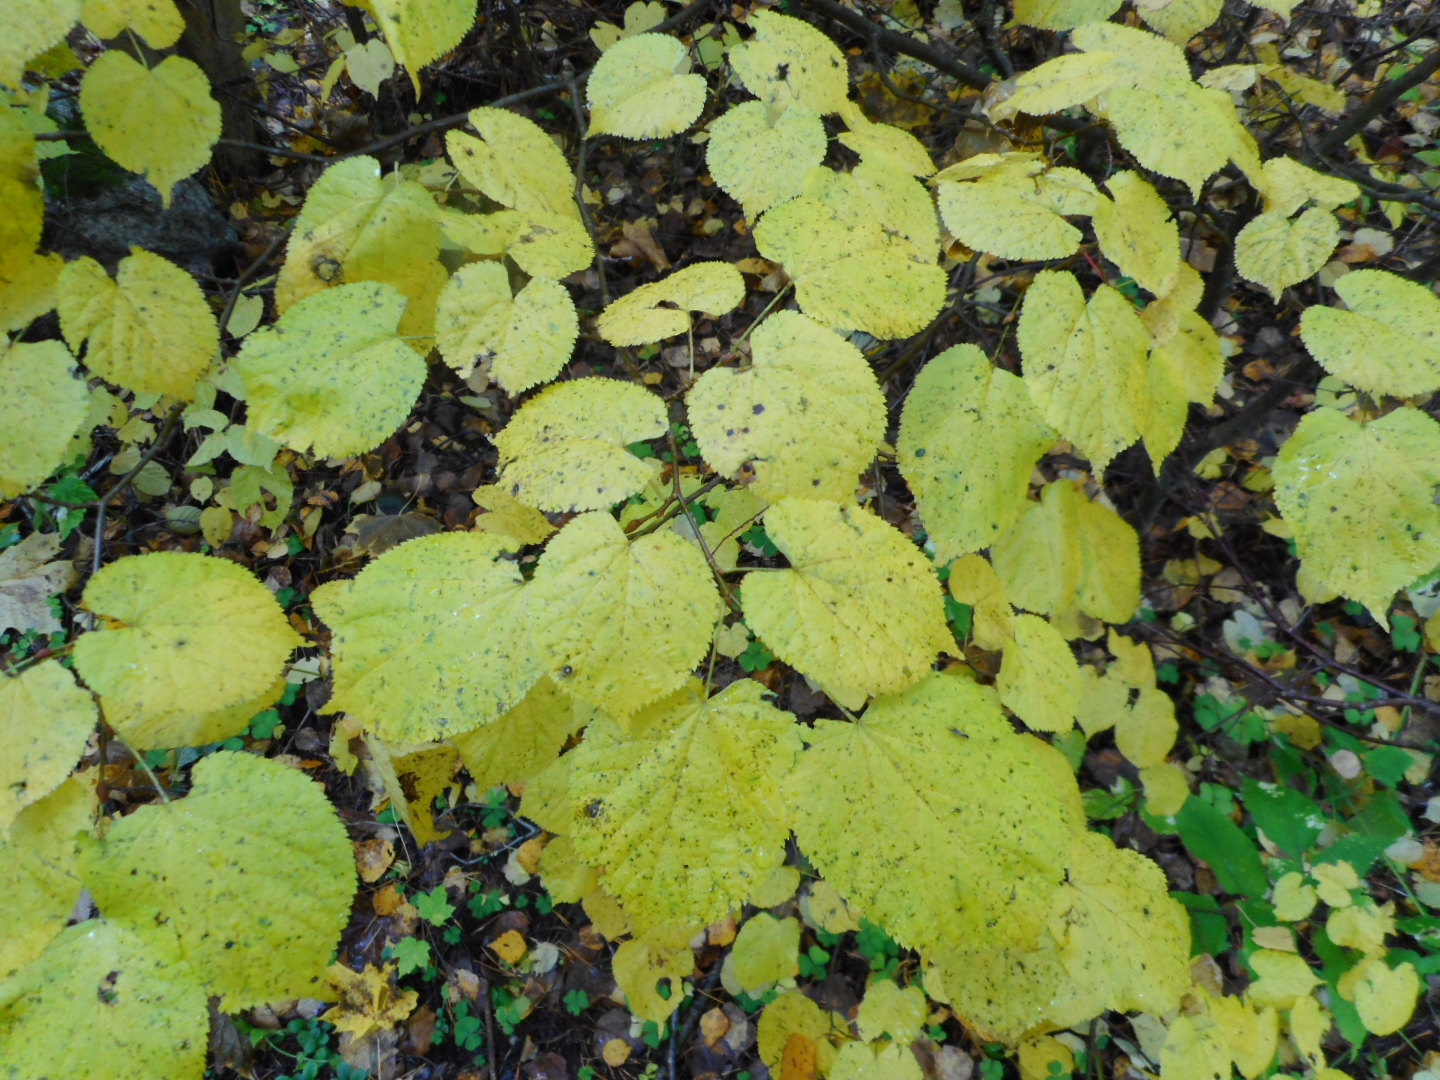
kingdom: Plantae
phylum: Tracheophyta
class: Magnoliopsida
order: Malvales
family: Malvaceae
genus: Tilia
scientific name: Tilia cordata
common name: Small-leaved lime
